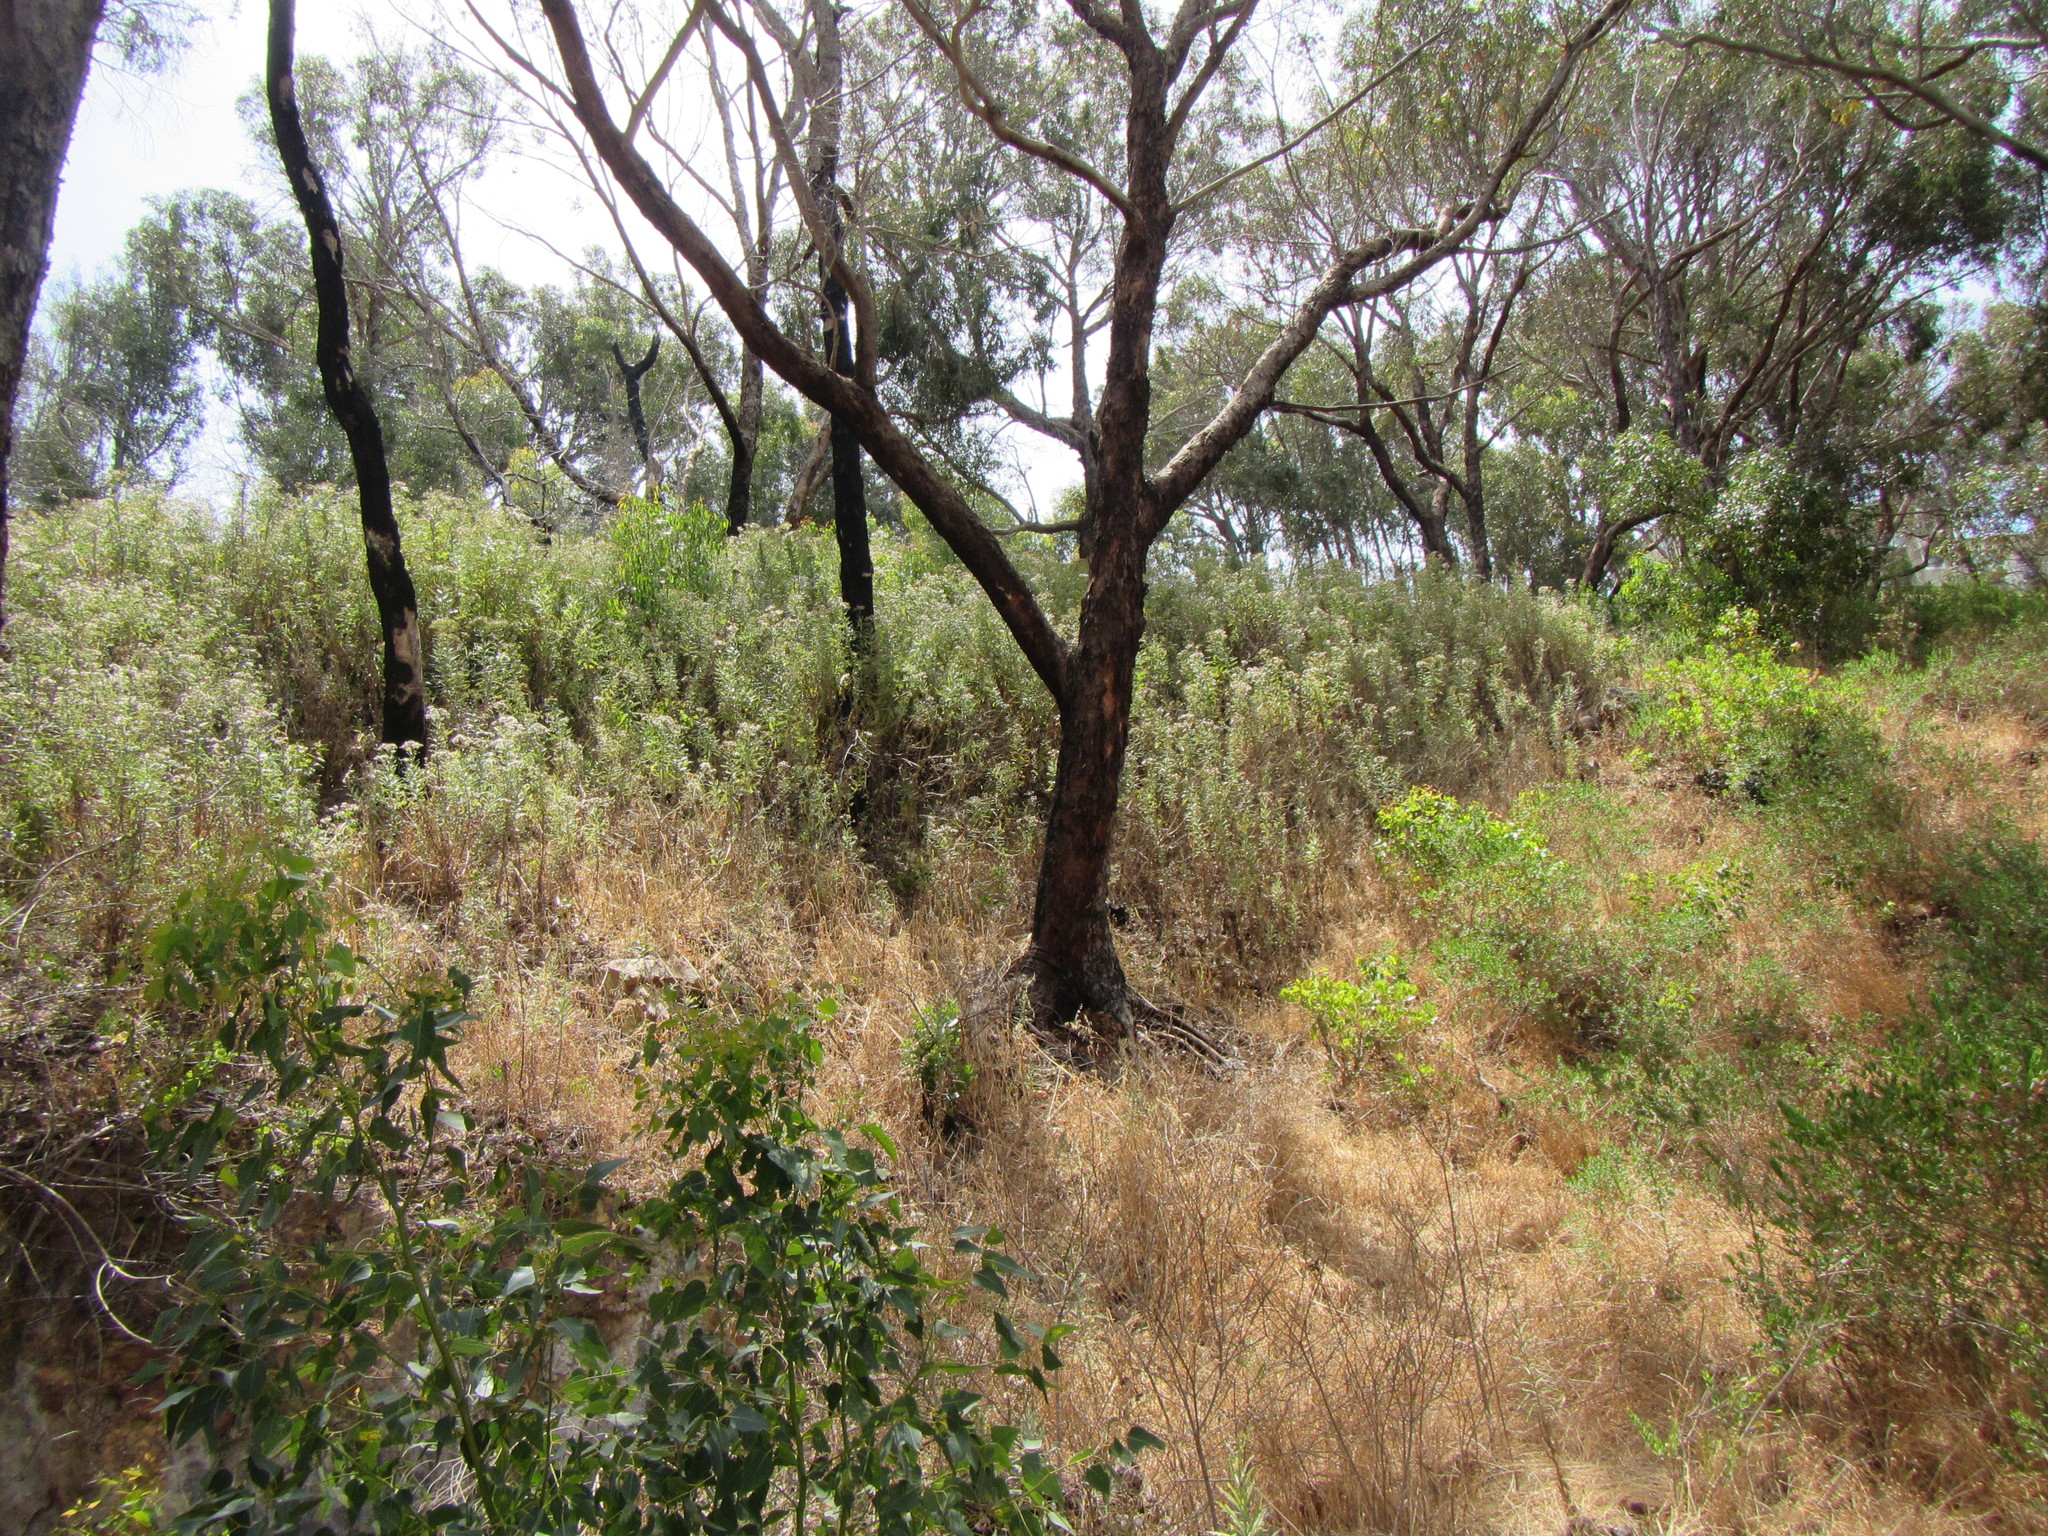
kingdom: Plantae
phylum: Tracheophyta
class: Magnoliopsida
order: Asterales
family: Asteraceae
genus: Senecio
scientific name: Senecio pterophorus
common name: Shoddy ragwort
